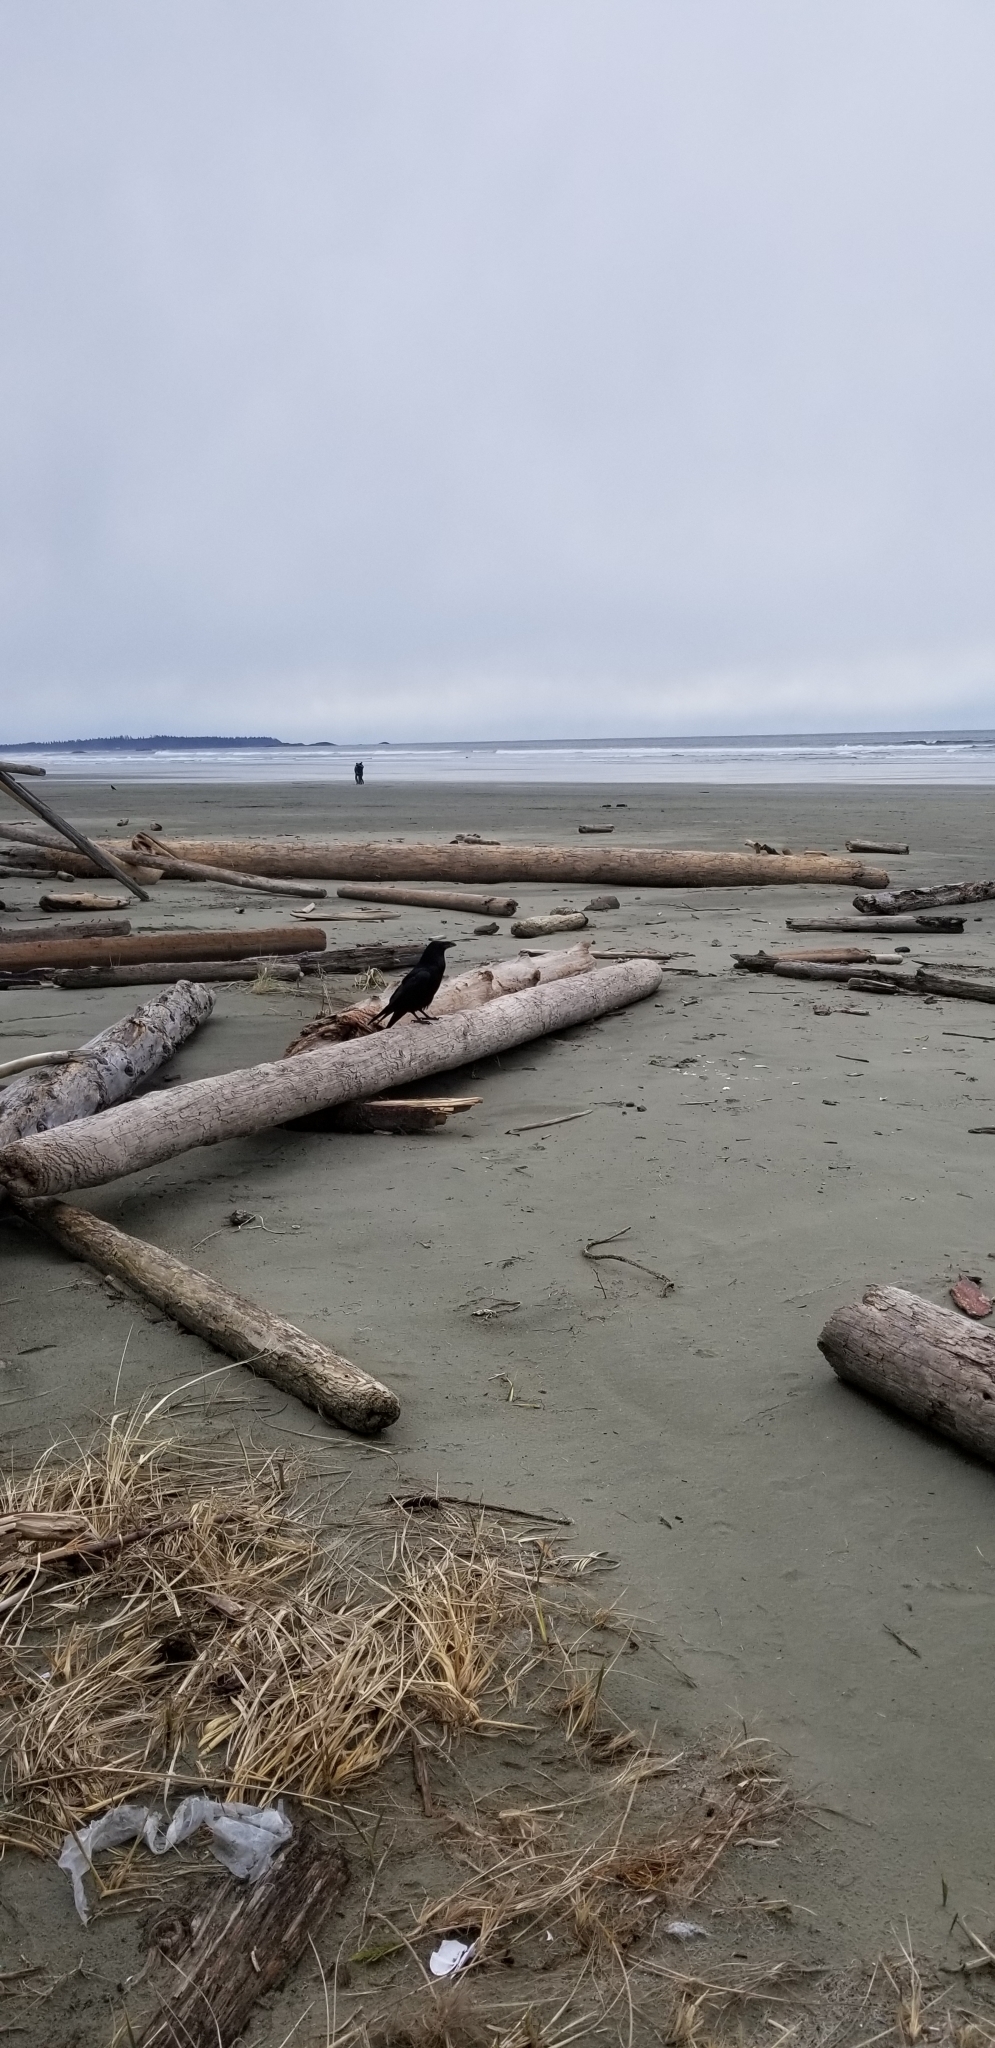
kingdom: Animalia
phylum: Chordata
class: Aves
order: Passeriformes
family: Corvidae
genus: Corvus
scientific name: Corvus corax
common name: Common raven
